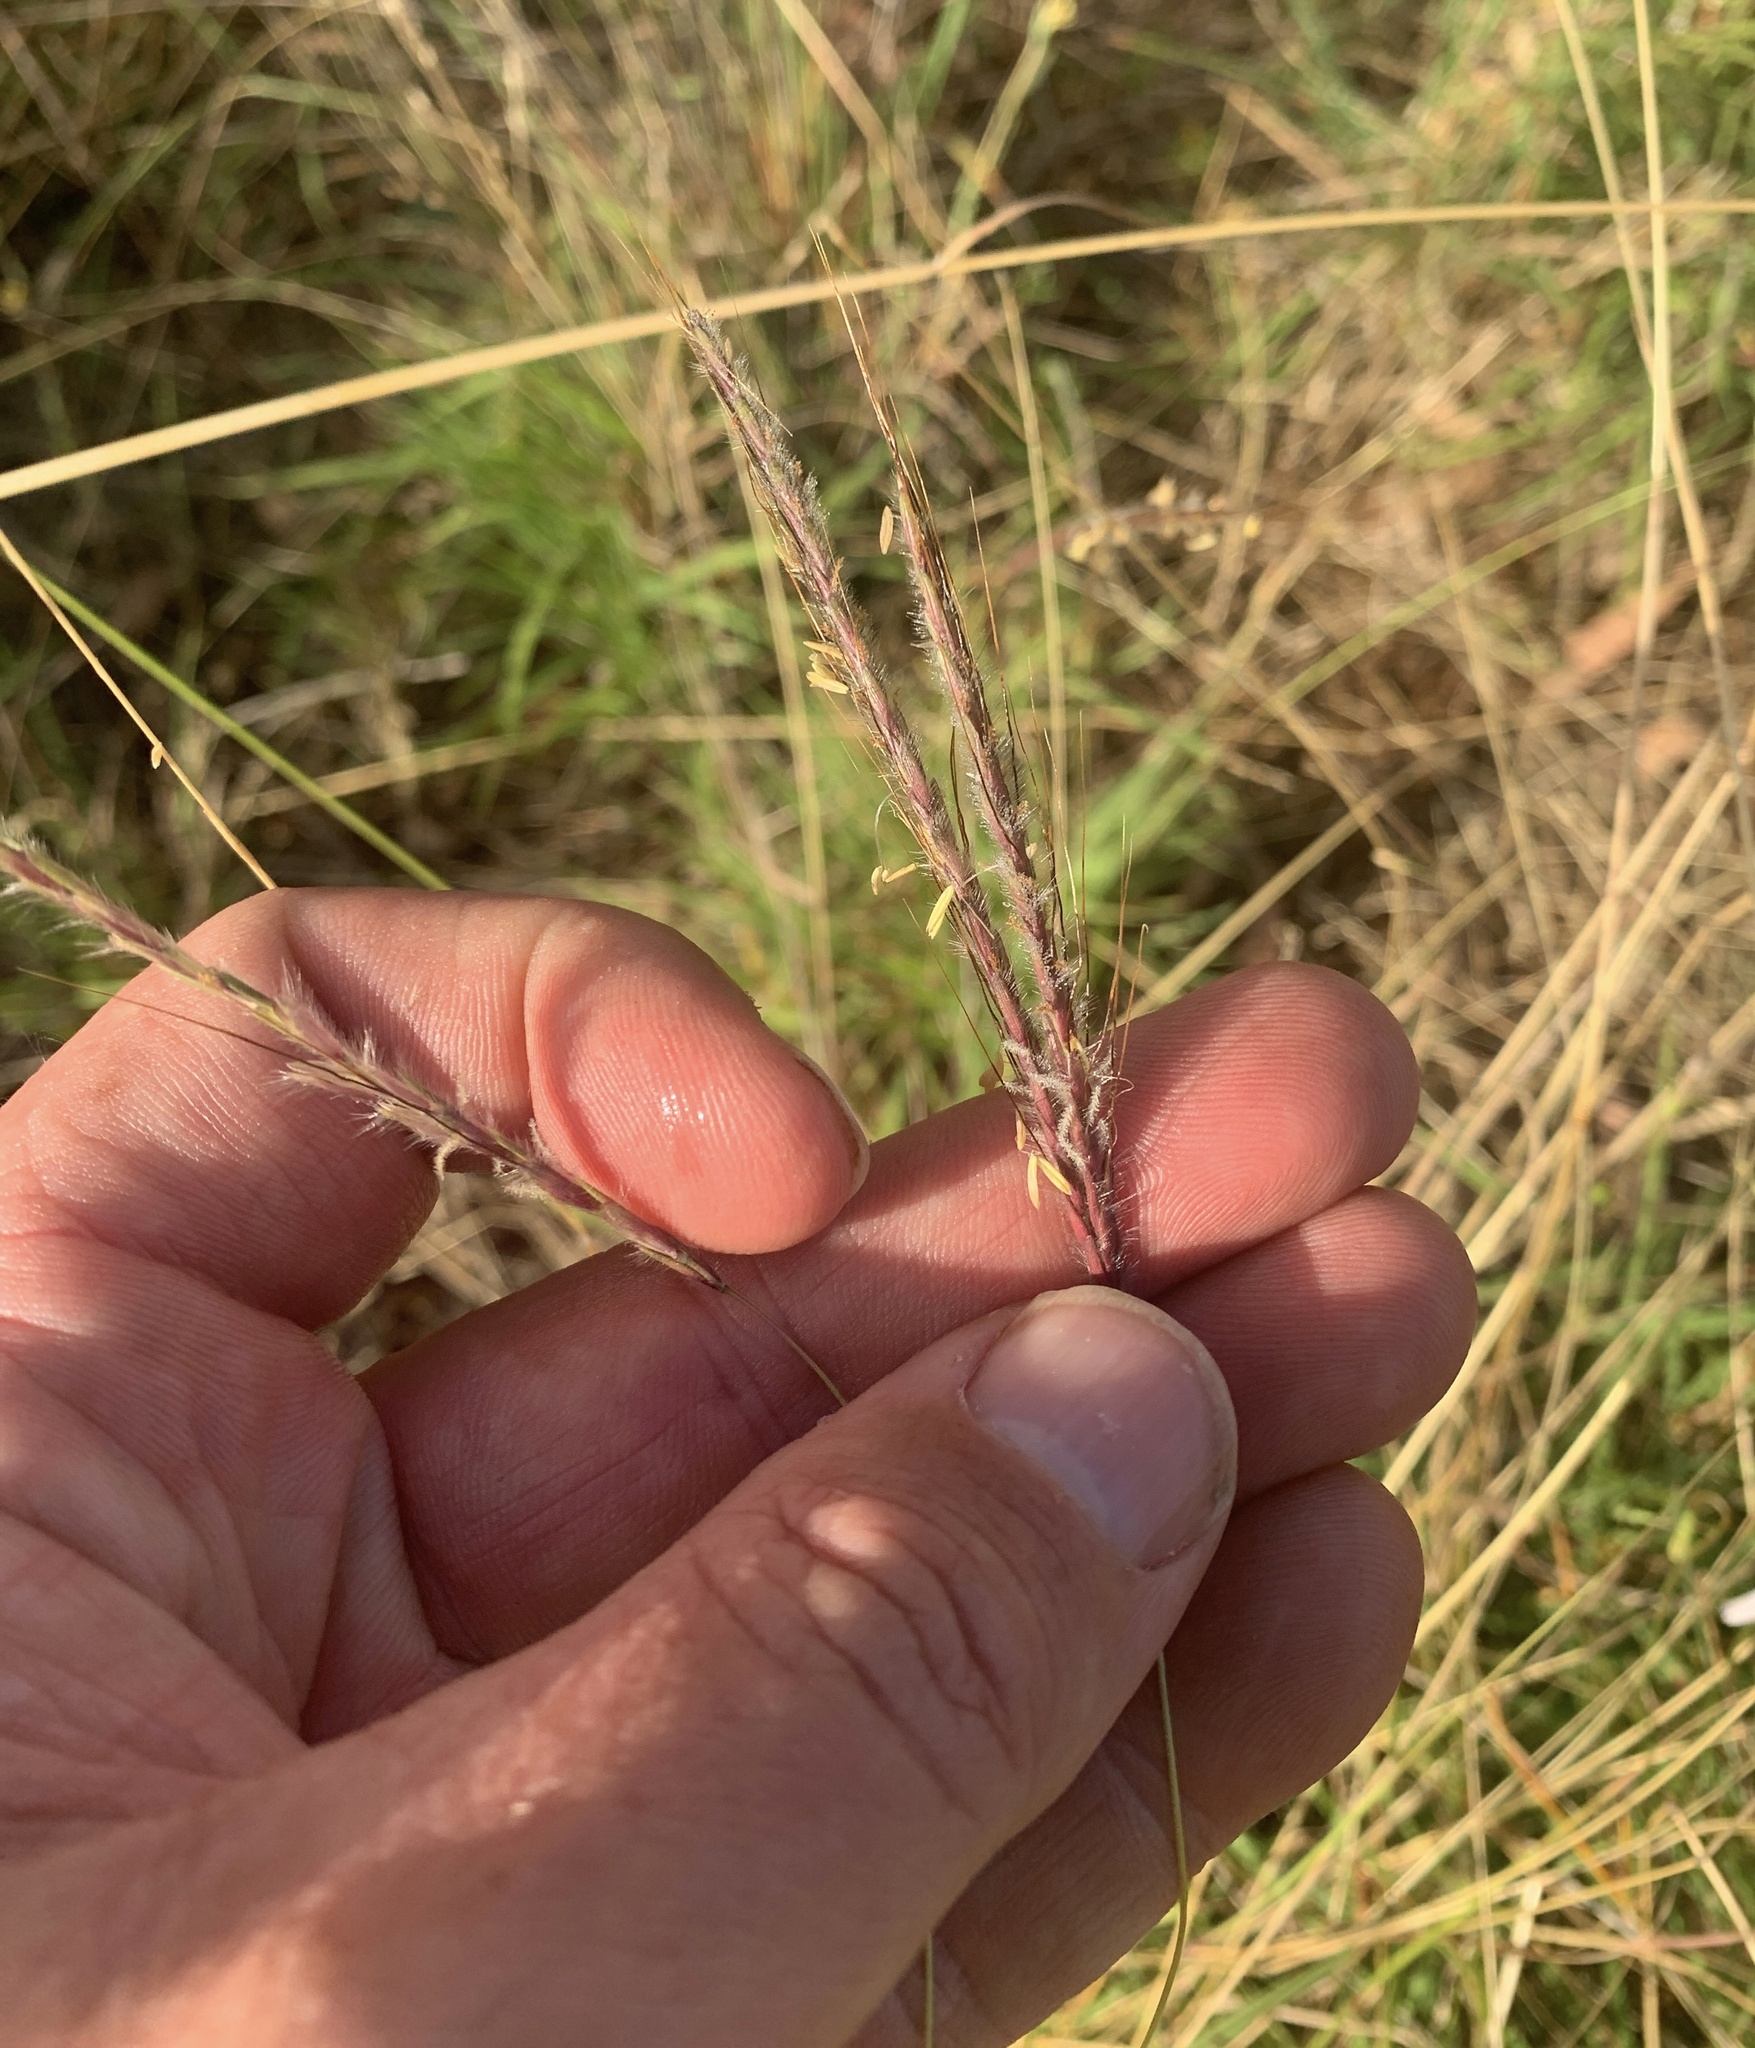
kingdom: Plantae
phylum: Tracheophyta
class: Liliopsida
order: Poales
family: Poaceae
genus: Dichanthium
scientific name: Dichanthium setosum
